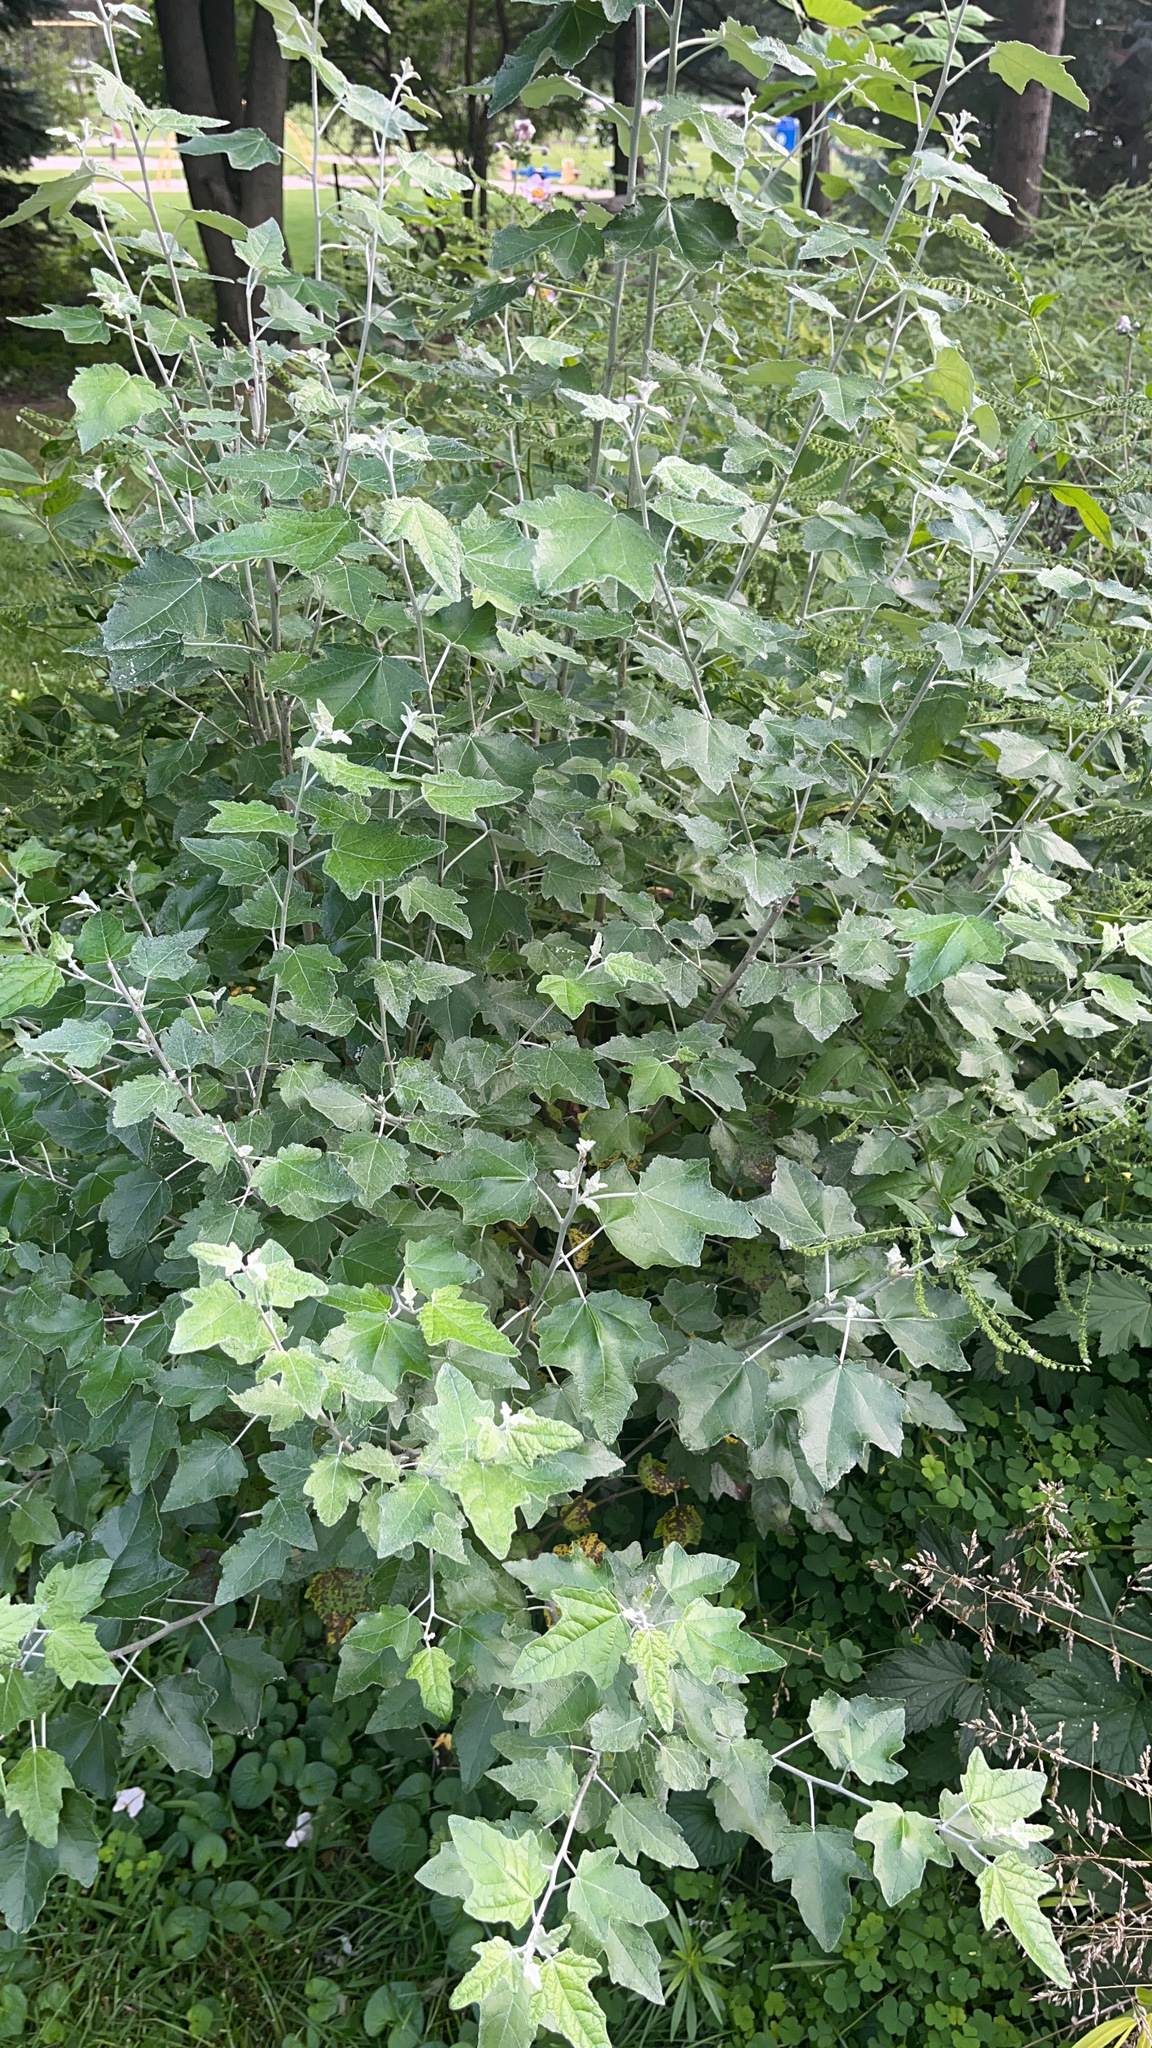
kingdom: Plantae
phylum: Tracheophyta
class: Magnoliopsida
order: Malpighiales
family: Salicaceae
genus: Populus
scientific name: Populus alba
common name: White poplar
